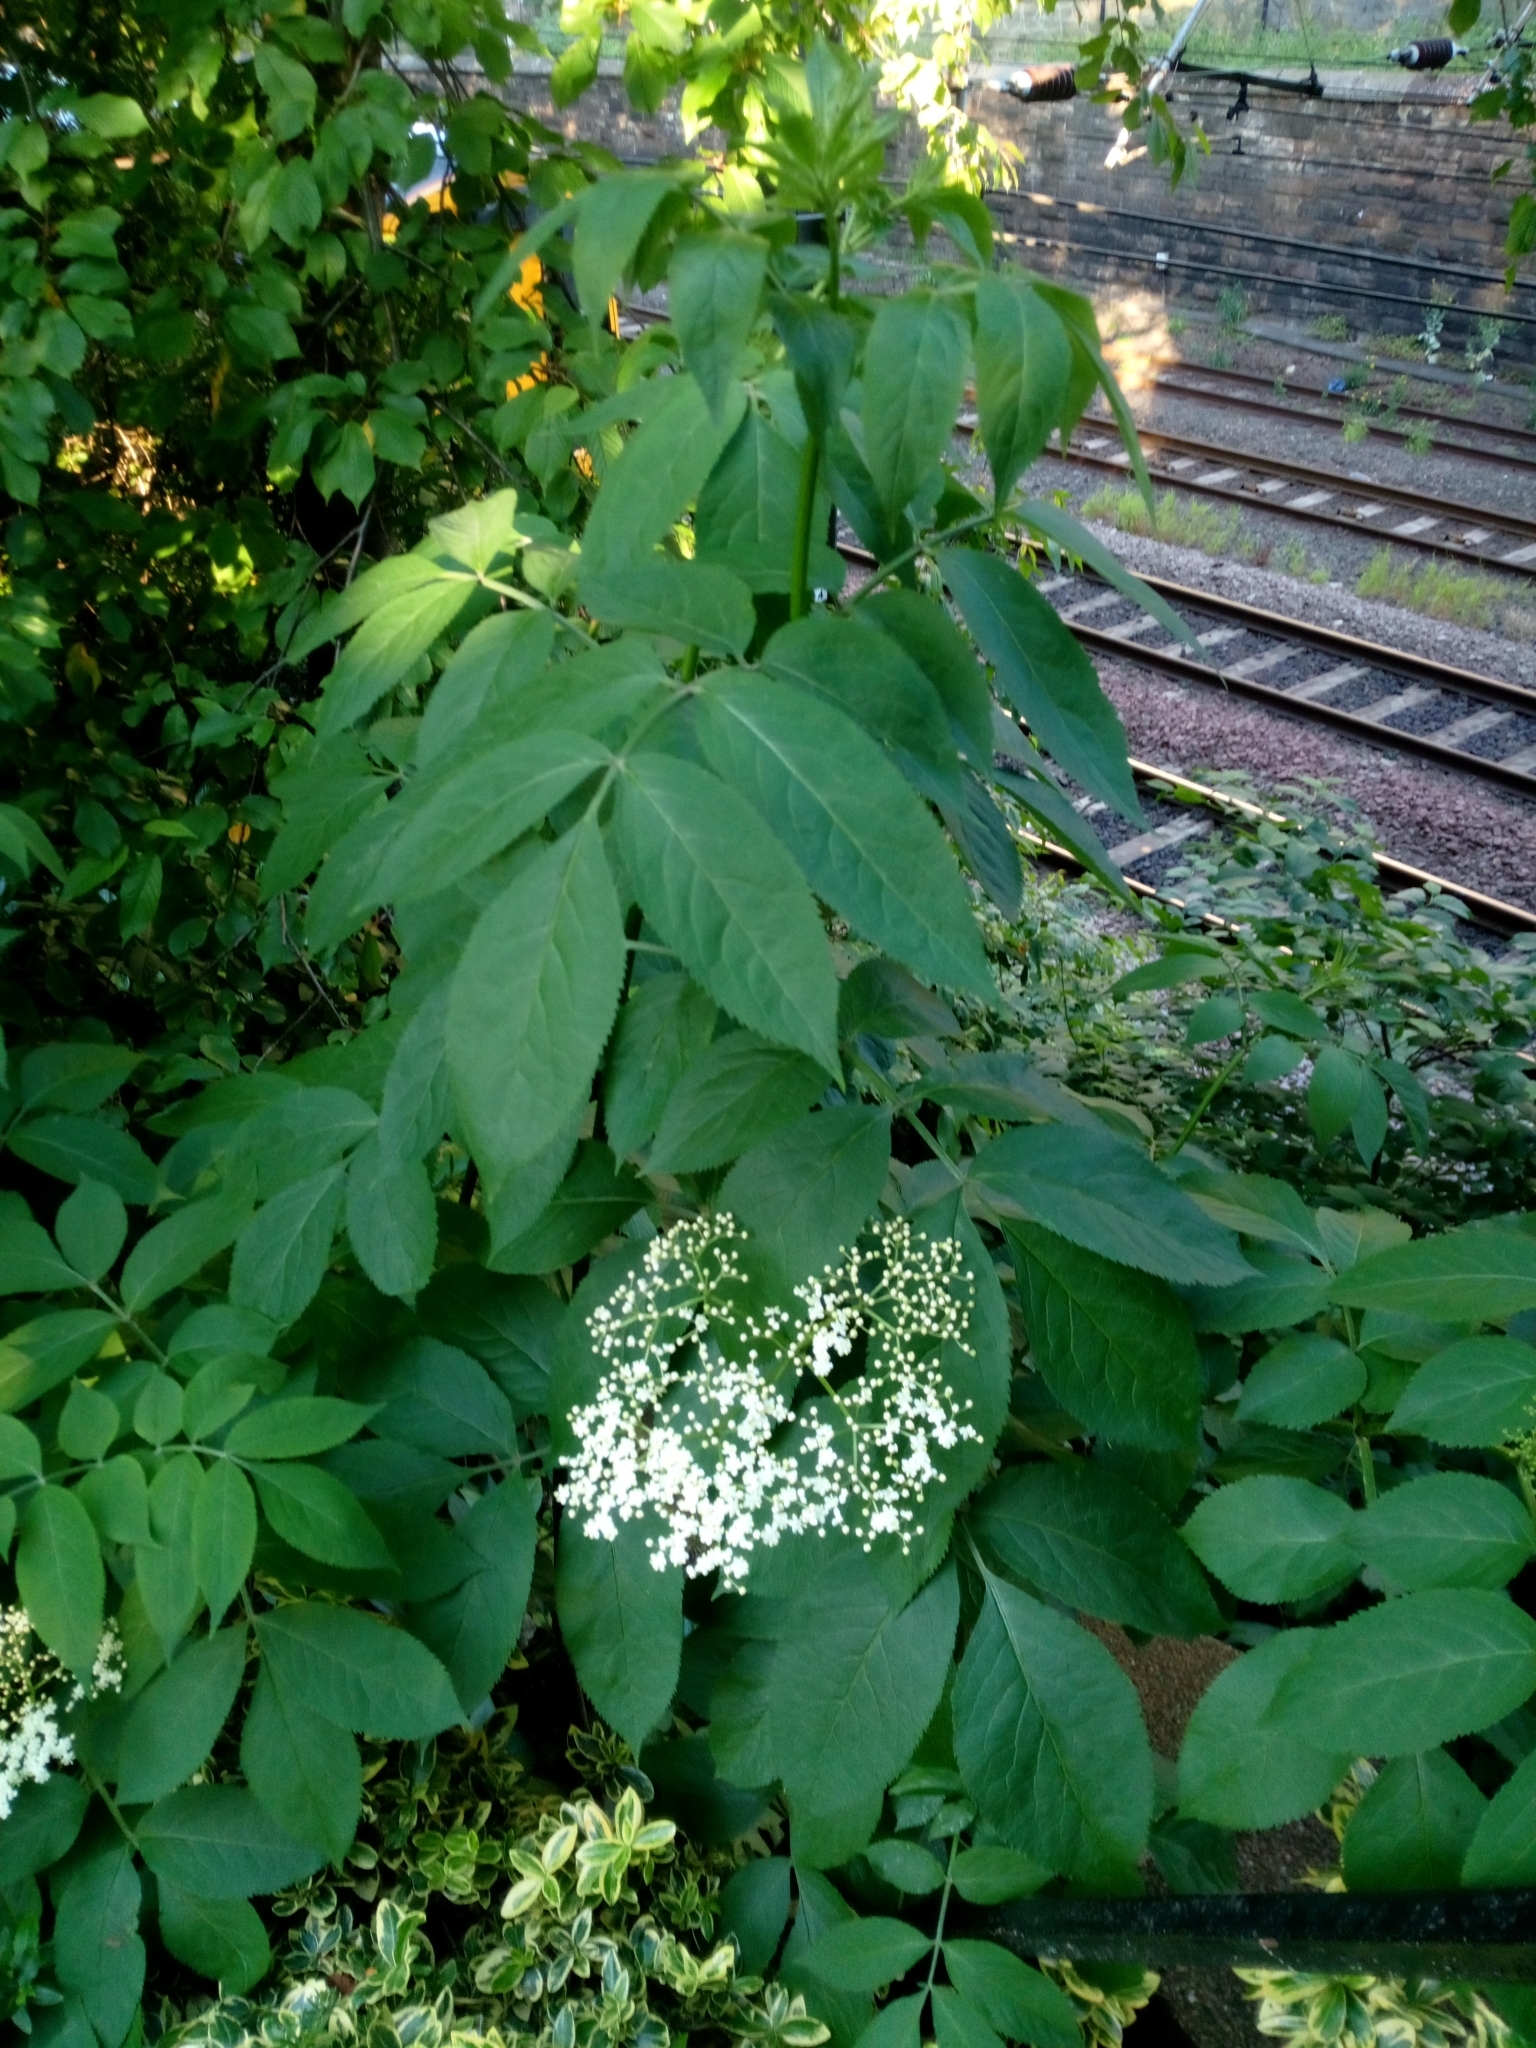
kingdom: Plantae
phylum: Tracheophyta
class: Magnoliopsida
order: Dipsacales
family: Viburnaceae
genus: Sambucus
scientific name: Sambucus nigra
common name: Elder
